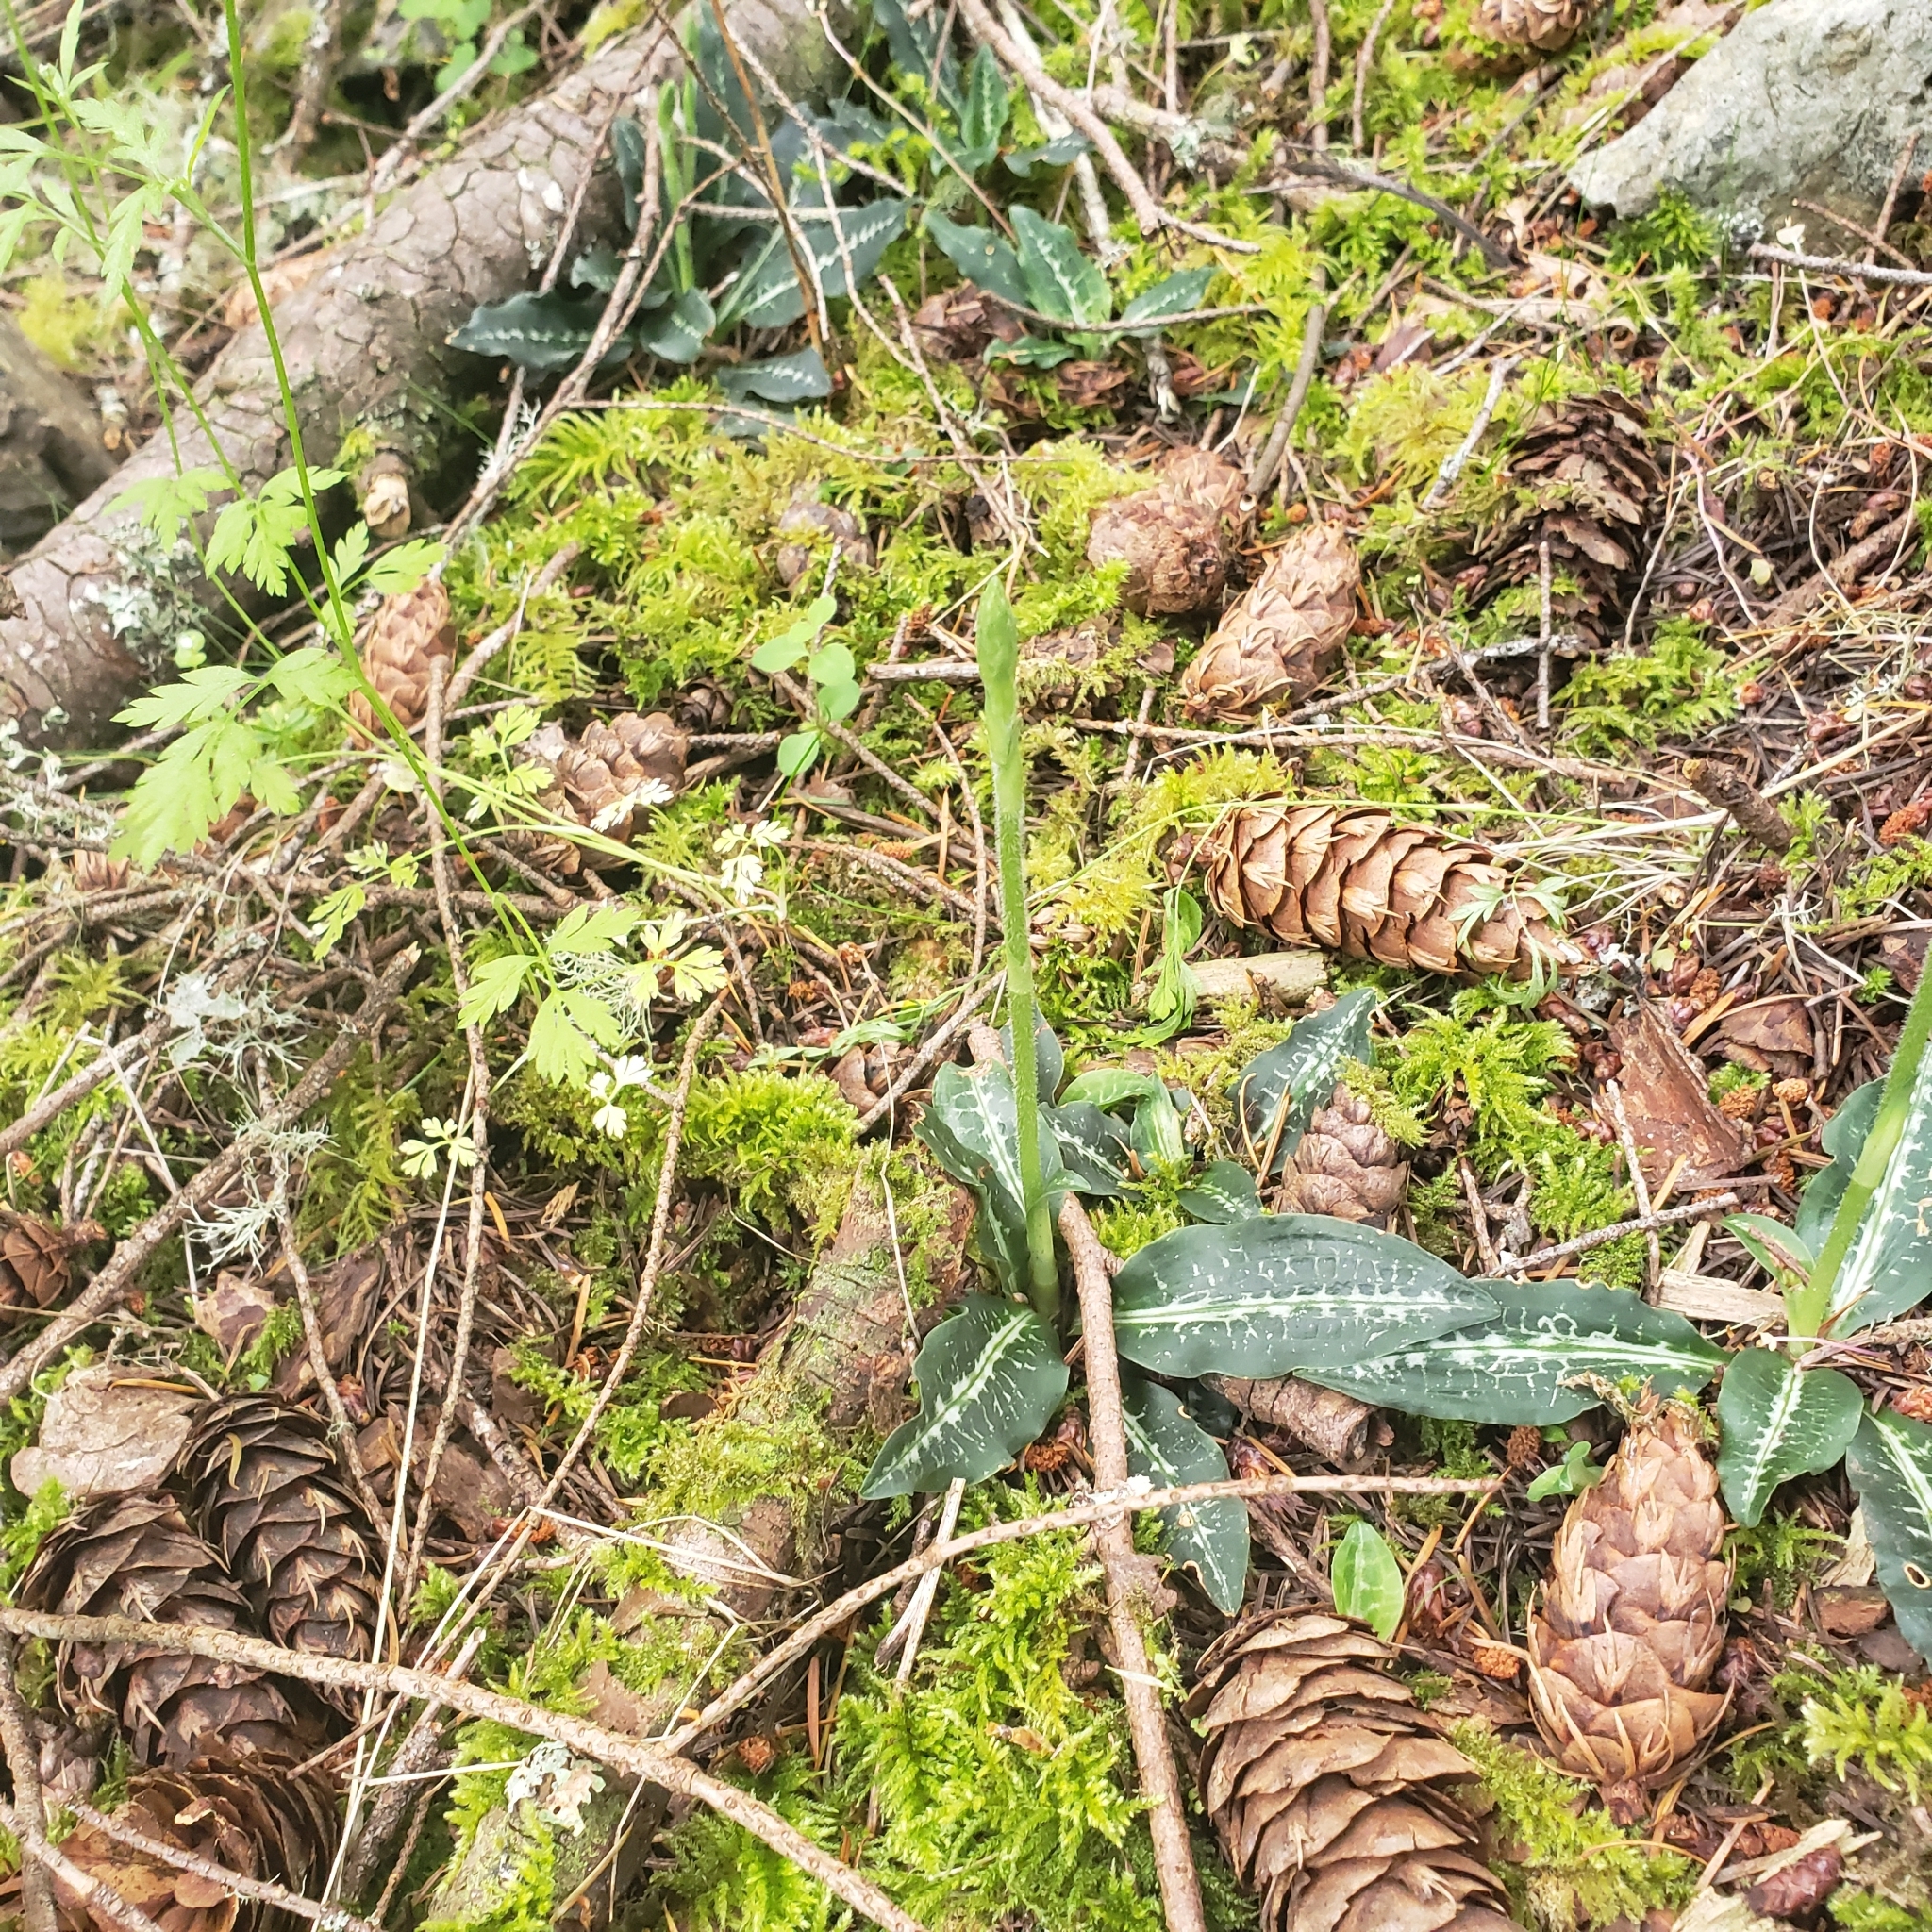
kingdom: Plantae
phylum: Tracheophyta
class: Liliopsida
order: Asparagales
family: Orchidaceae
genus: Goodyera
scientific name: Goodyera oblongifolia
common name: Giant rattlesnake-plantain
